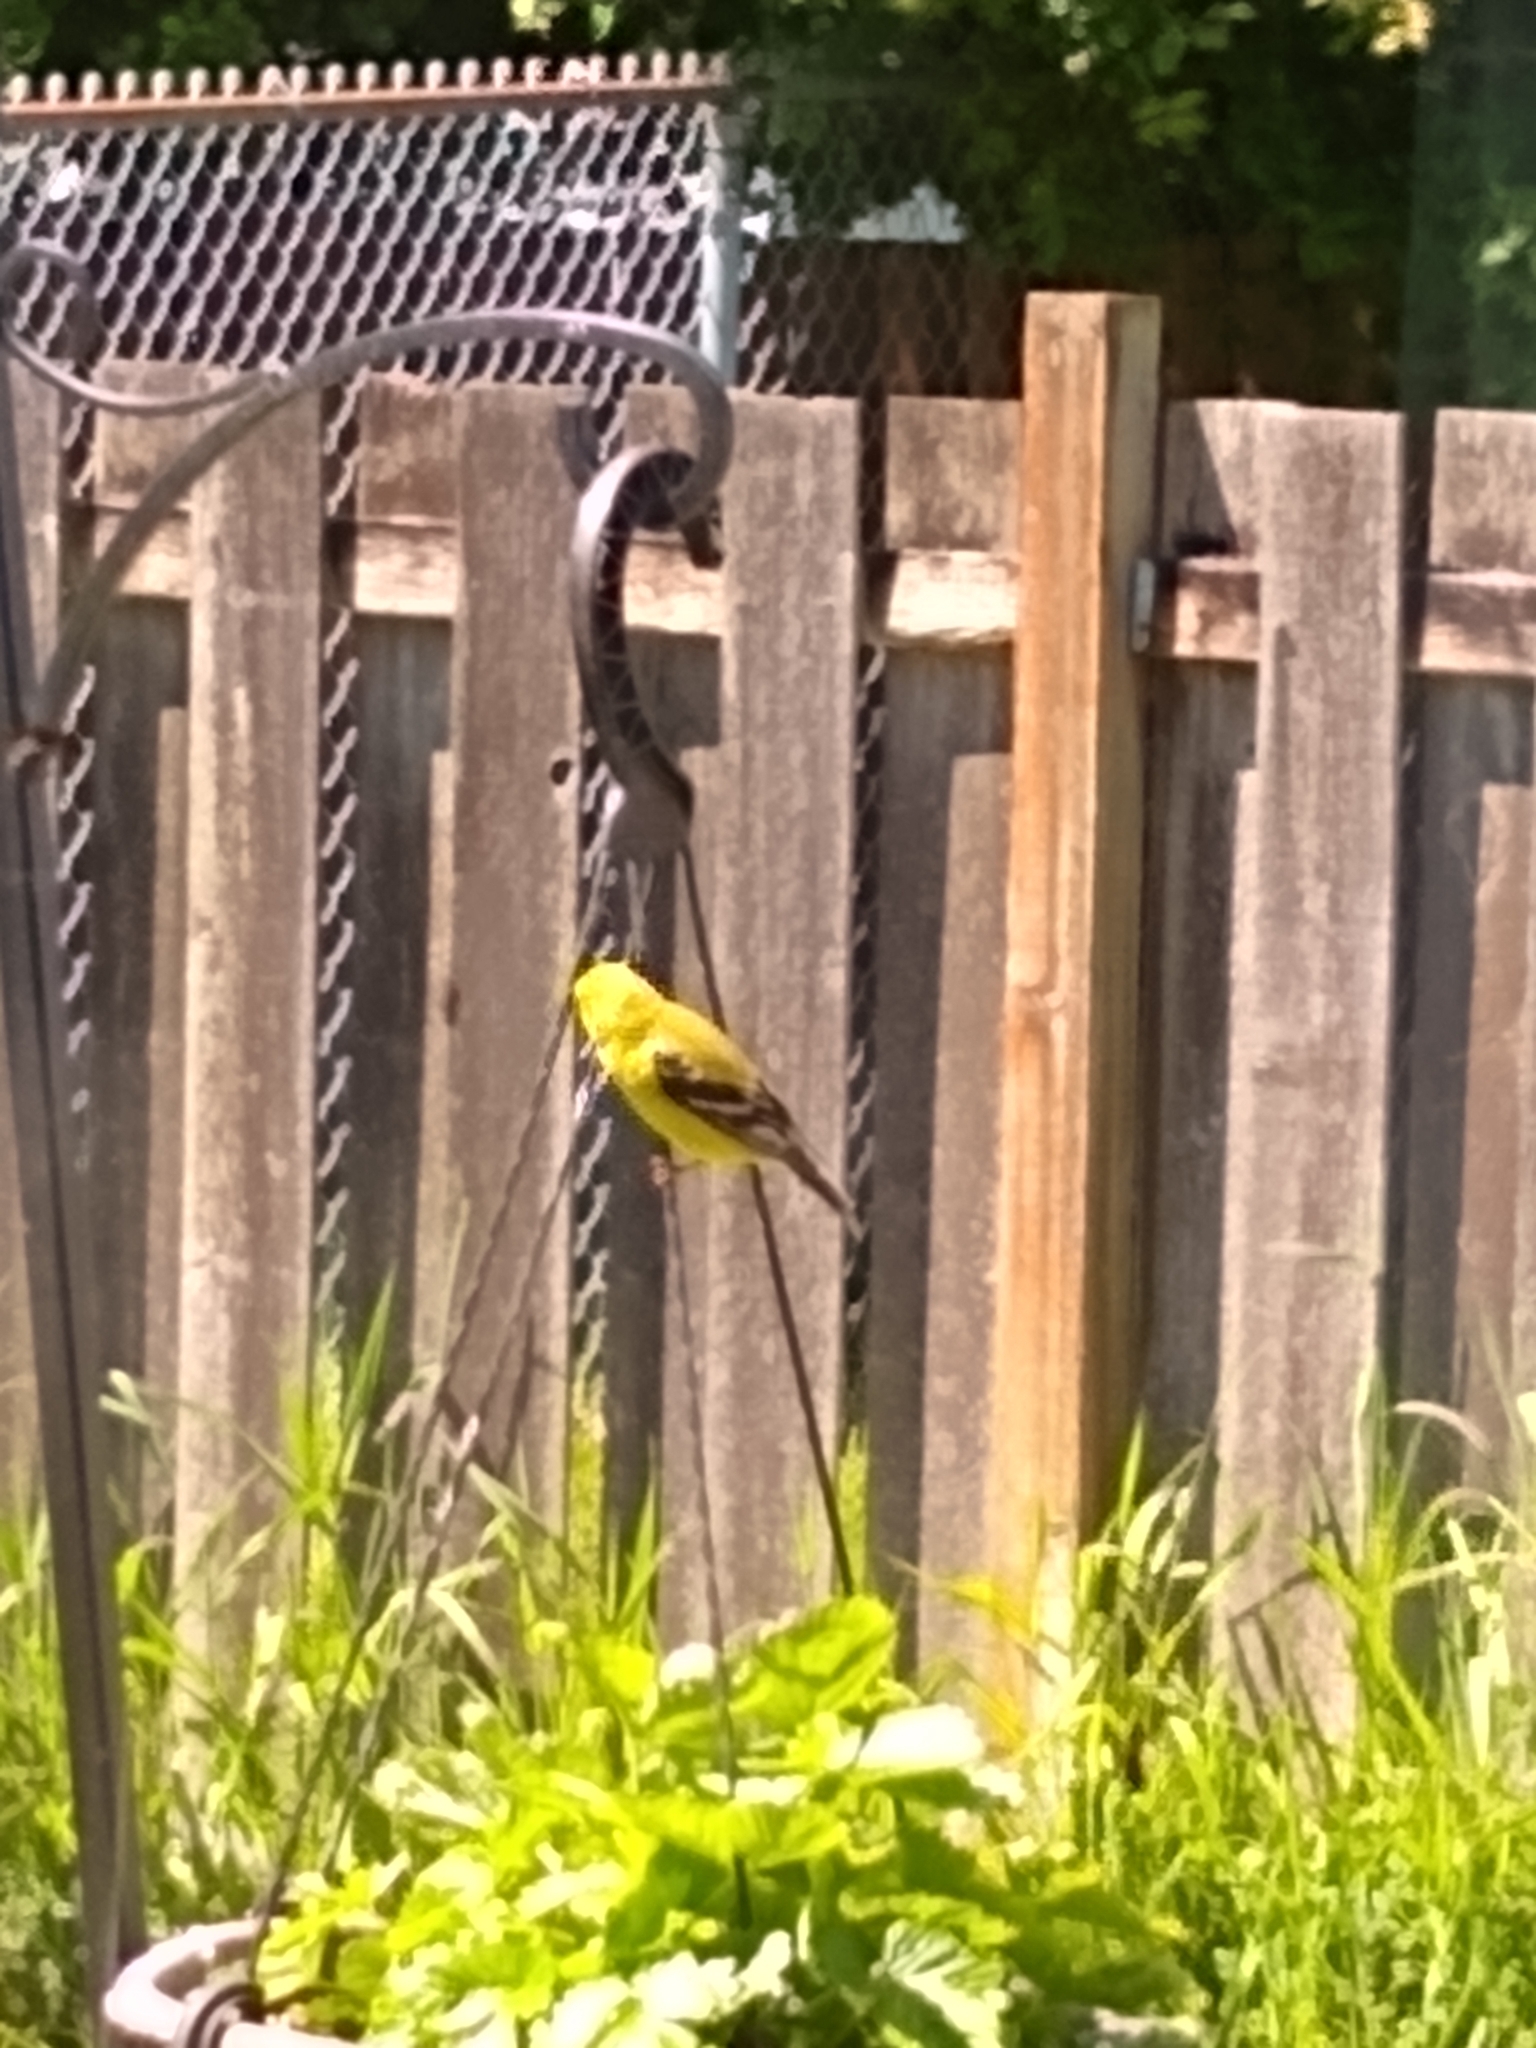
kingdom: Animalia
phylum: Chordata
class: Aves
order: Passeriformes
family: Fringillidae
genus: Spinus
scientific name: Spinus tristis
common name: American goldfinch
